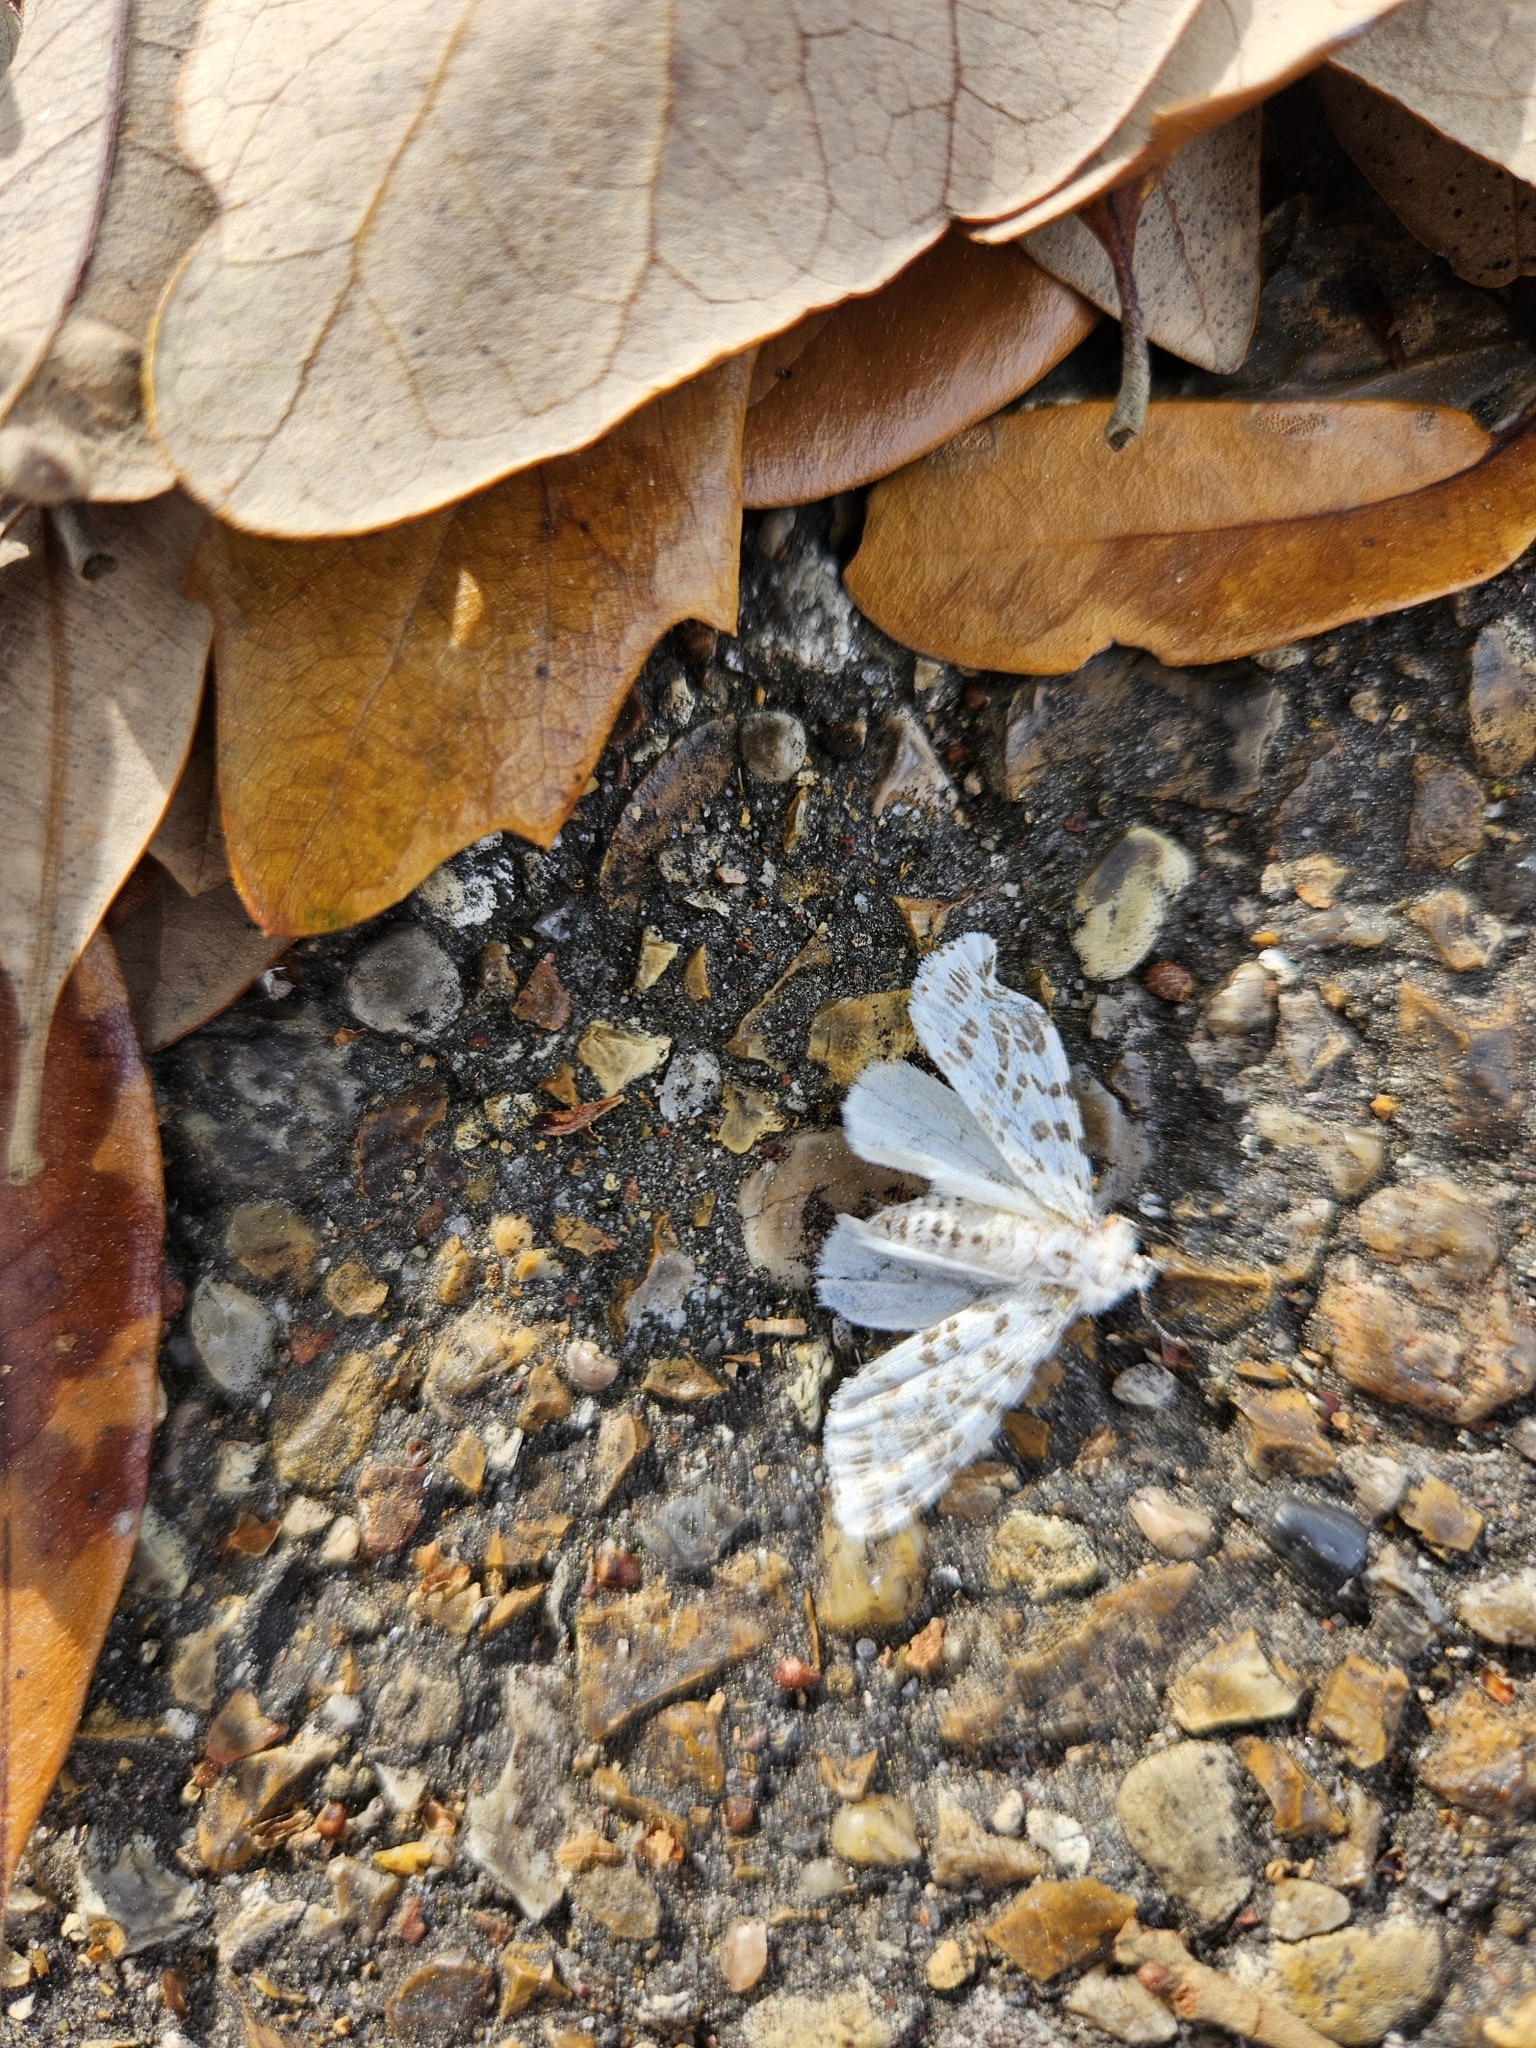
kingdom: Animalia
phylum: Arthropoda
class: Insecta
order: Lepidoptera
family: Erebidae
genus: Hyphantria
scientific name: Hyphantria cunea
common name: American white moth
